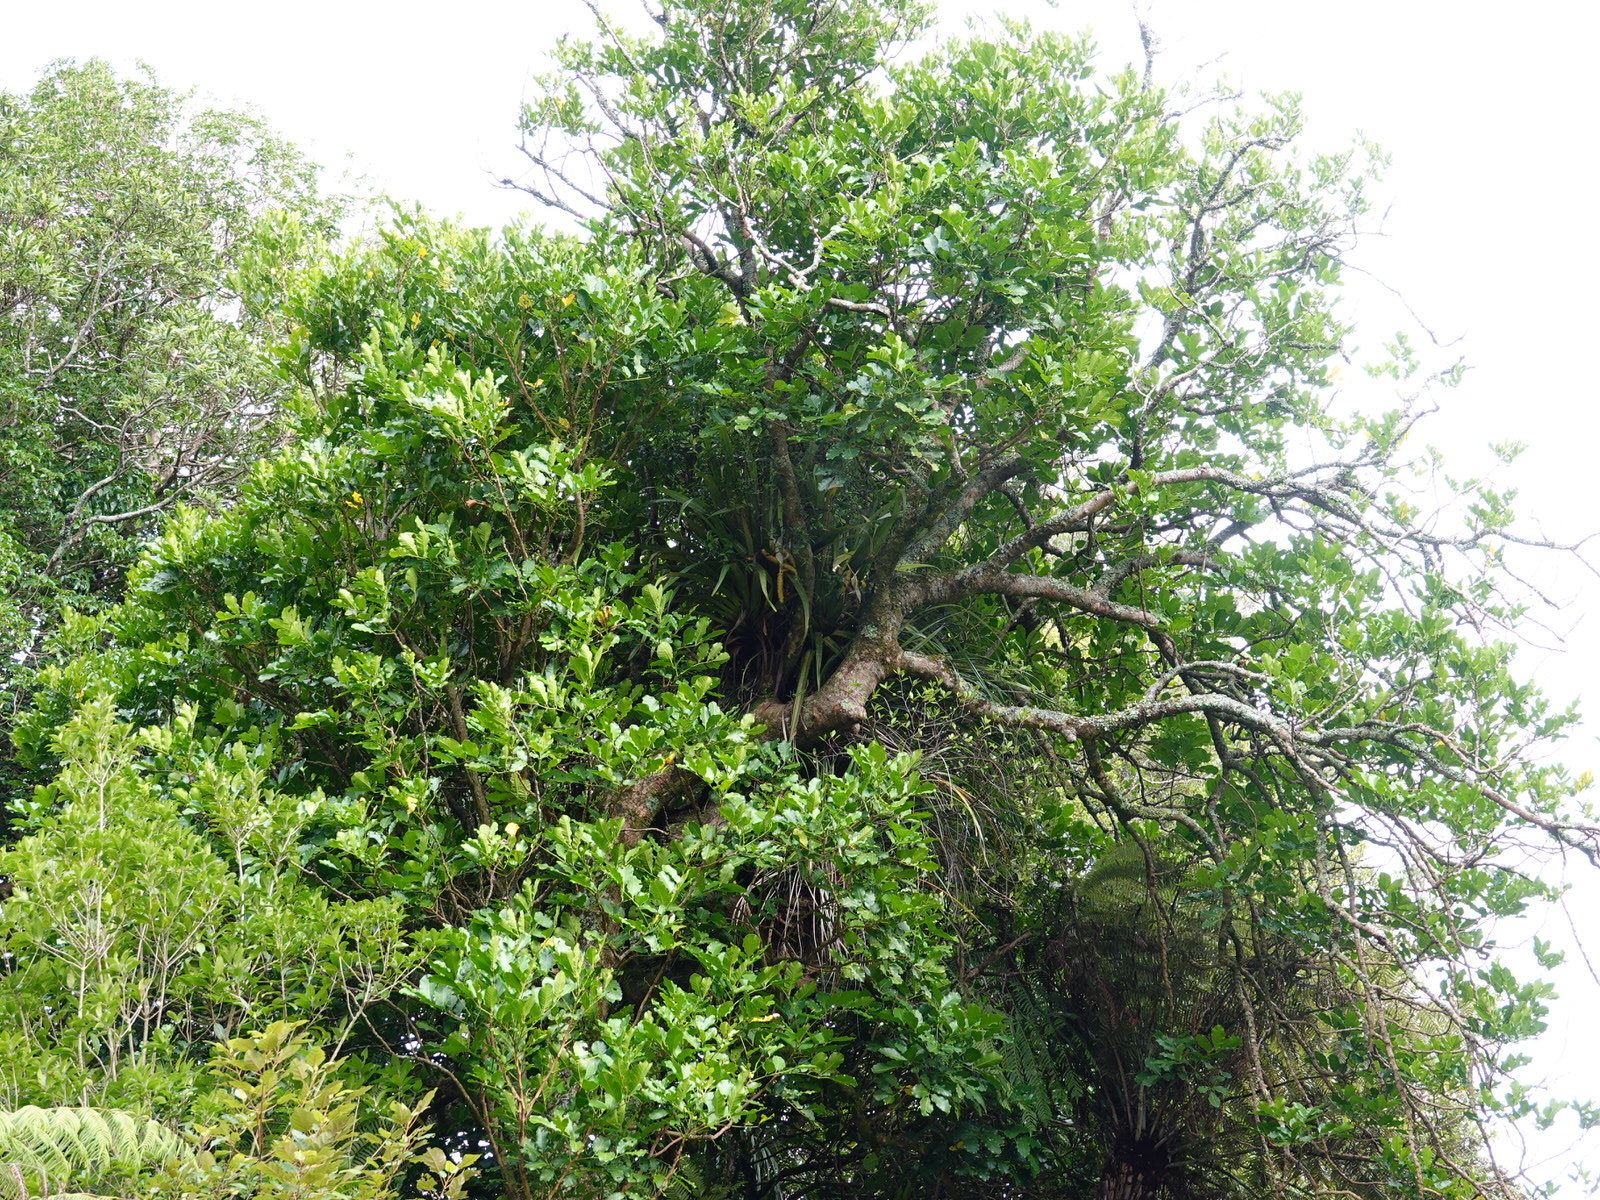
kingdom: Plantae
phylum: Tracheophyta
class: Liliopsida
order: Asparagales
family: Asteliaceae
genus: Astelia
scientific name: Astelia hastata
